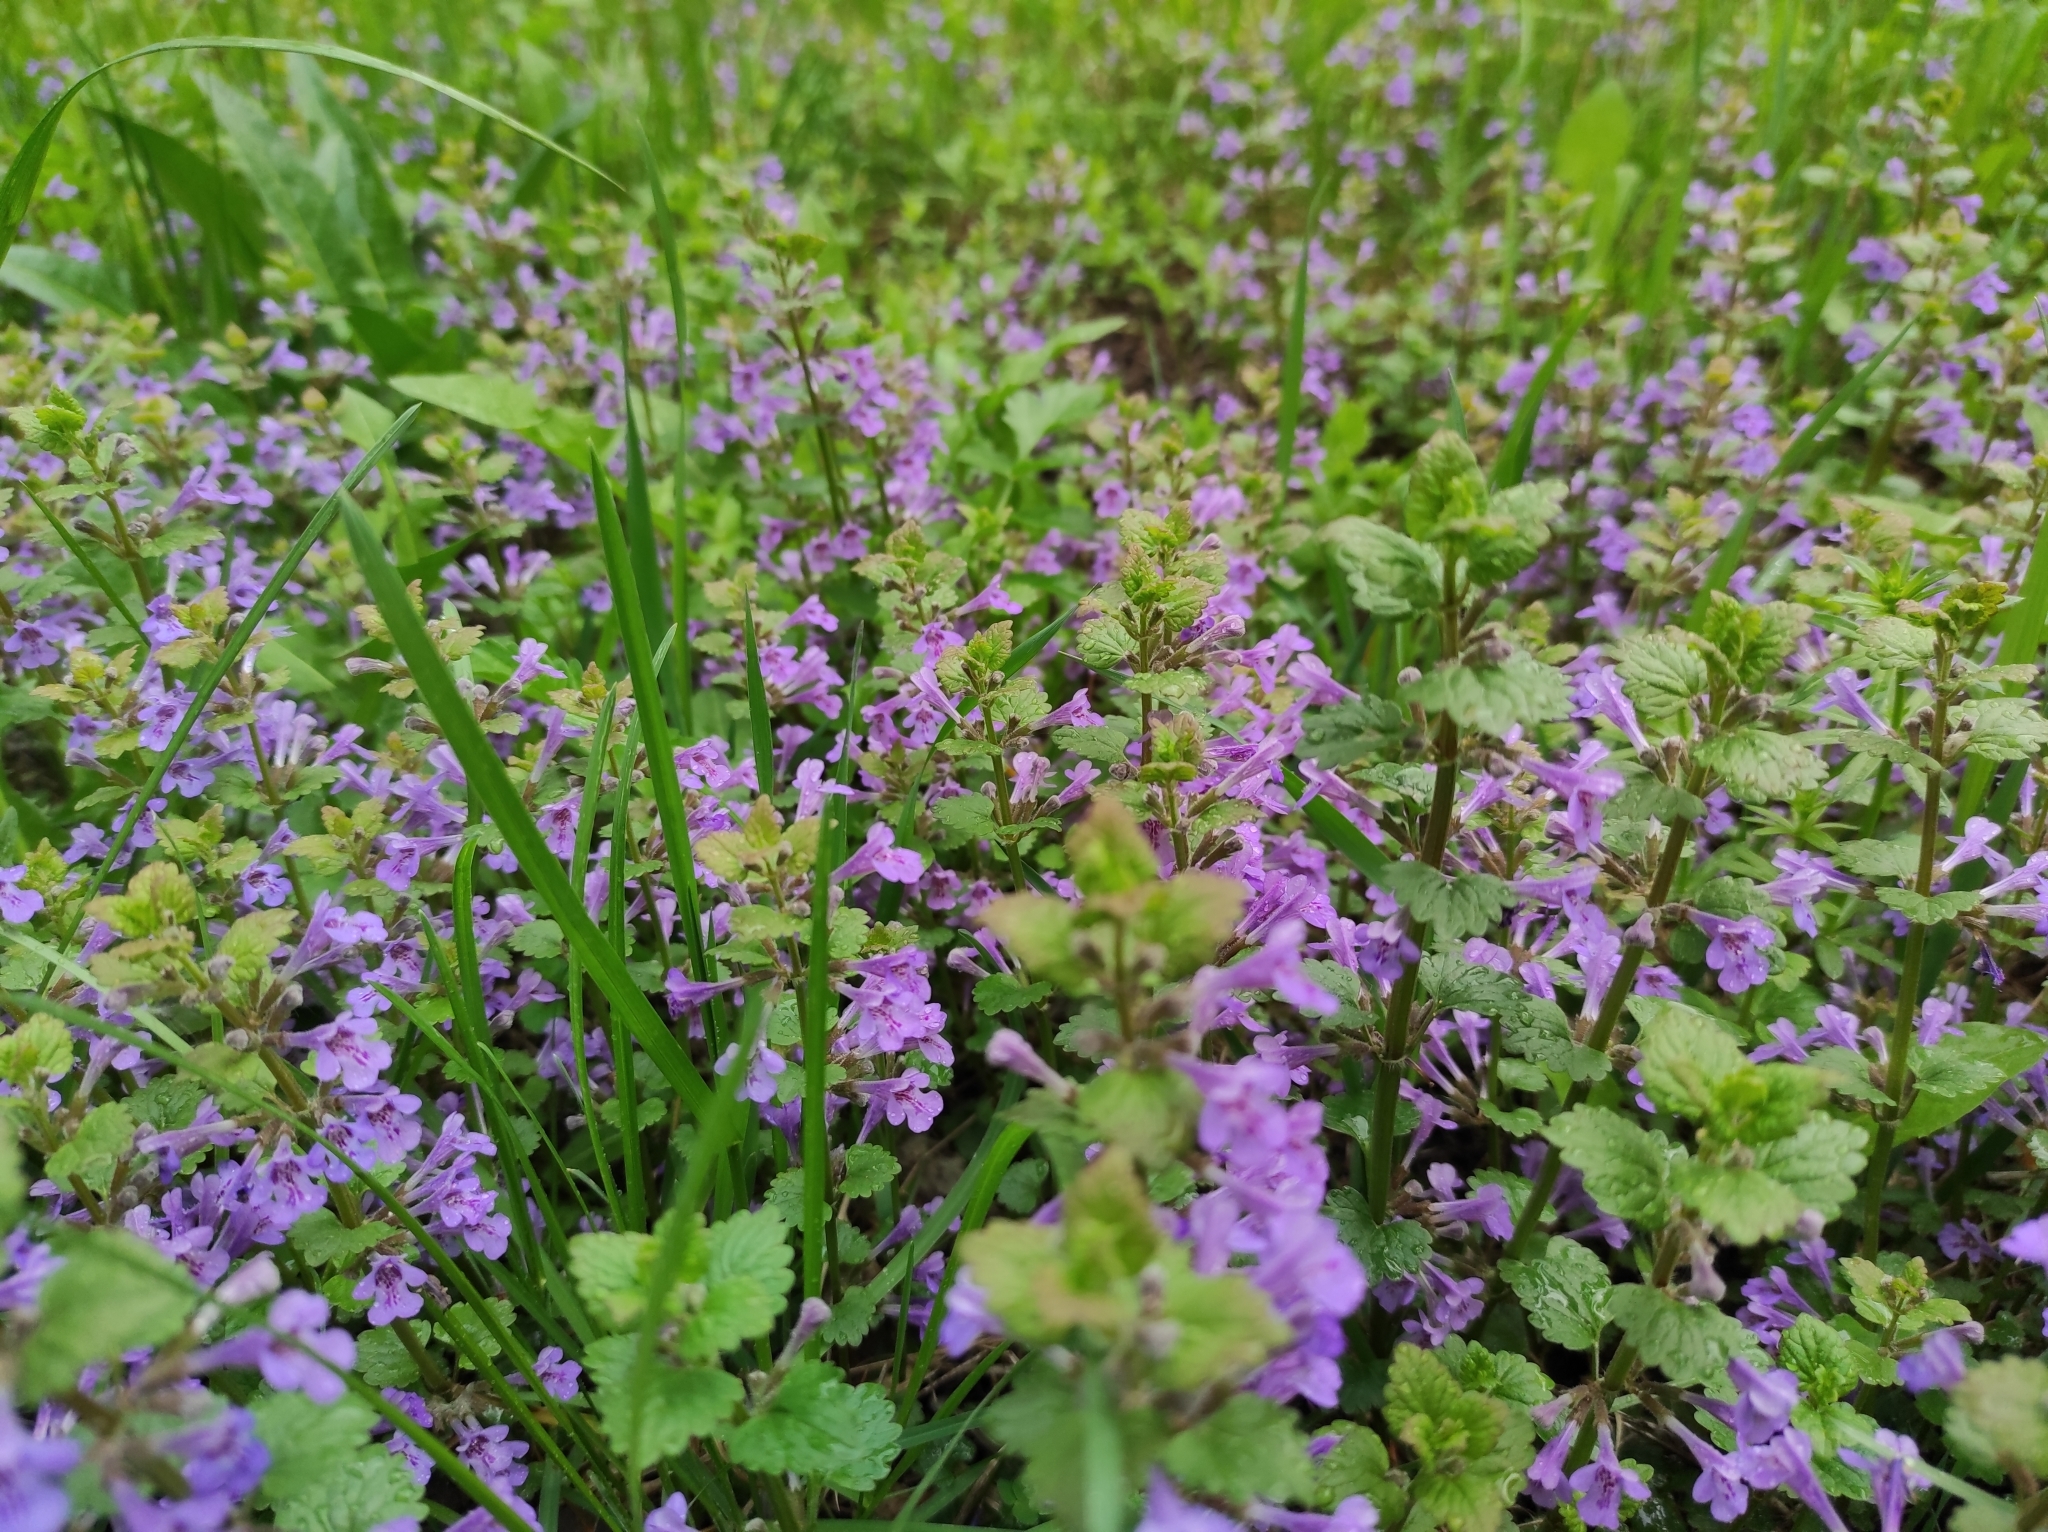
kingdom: Plantae
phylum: Tracheophyta
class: Magnoliopsida
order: Lamiales
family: Lamiaceae
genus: Glechoma
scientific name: Glechoma hederacea
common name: Ground ivy
